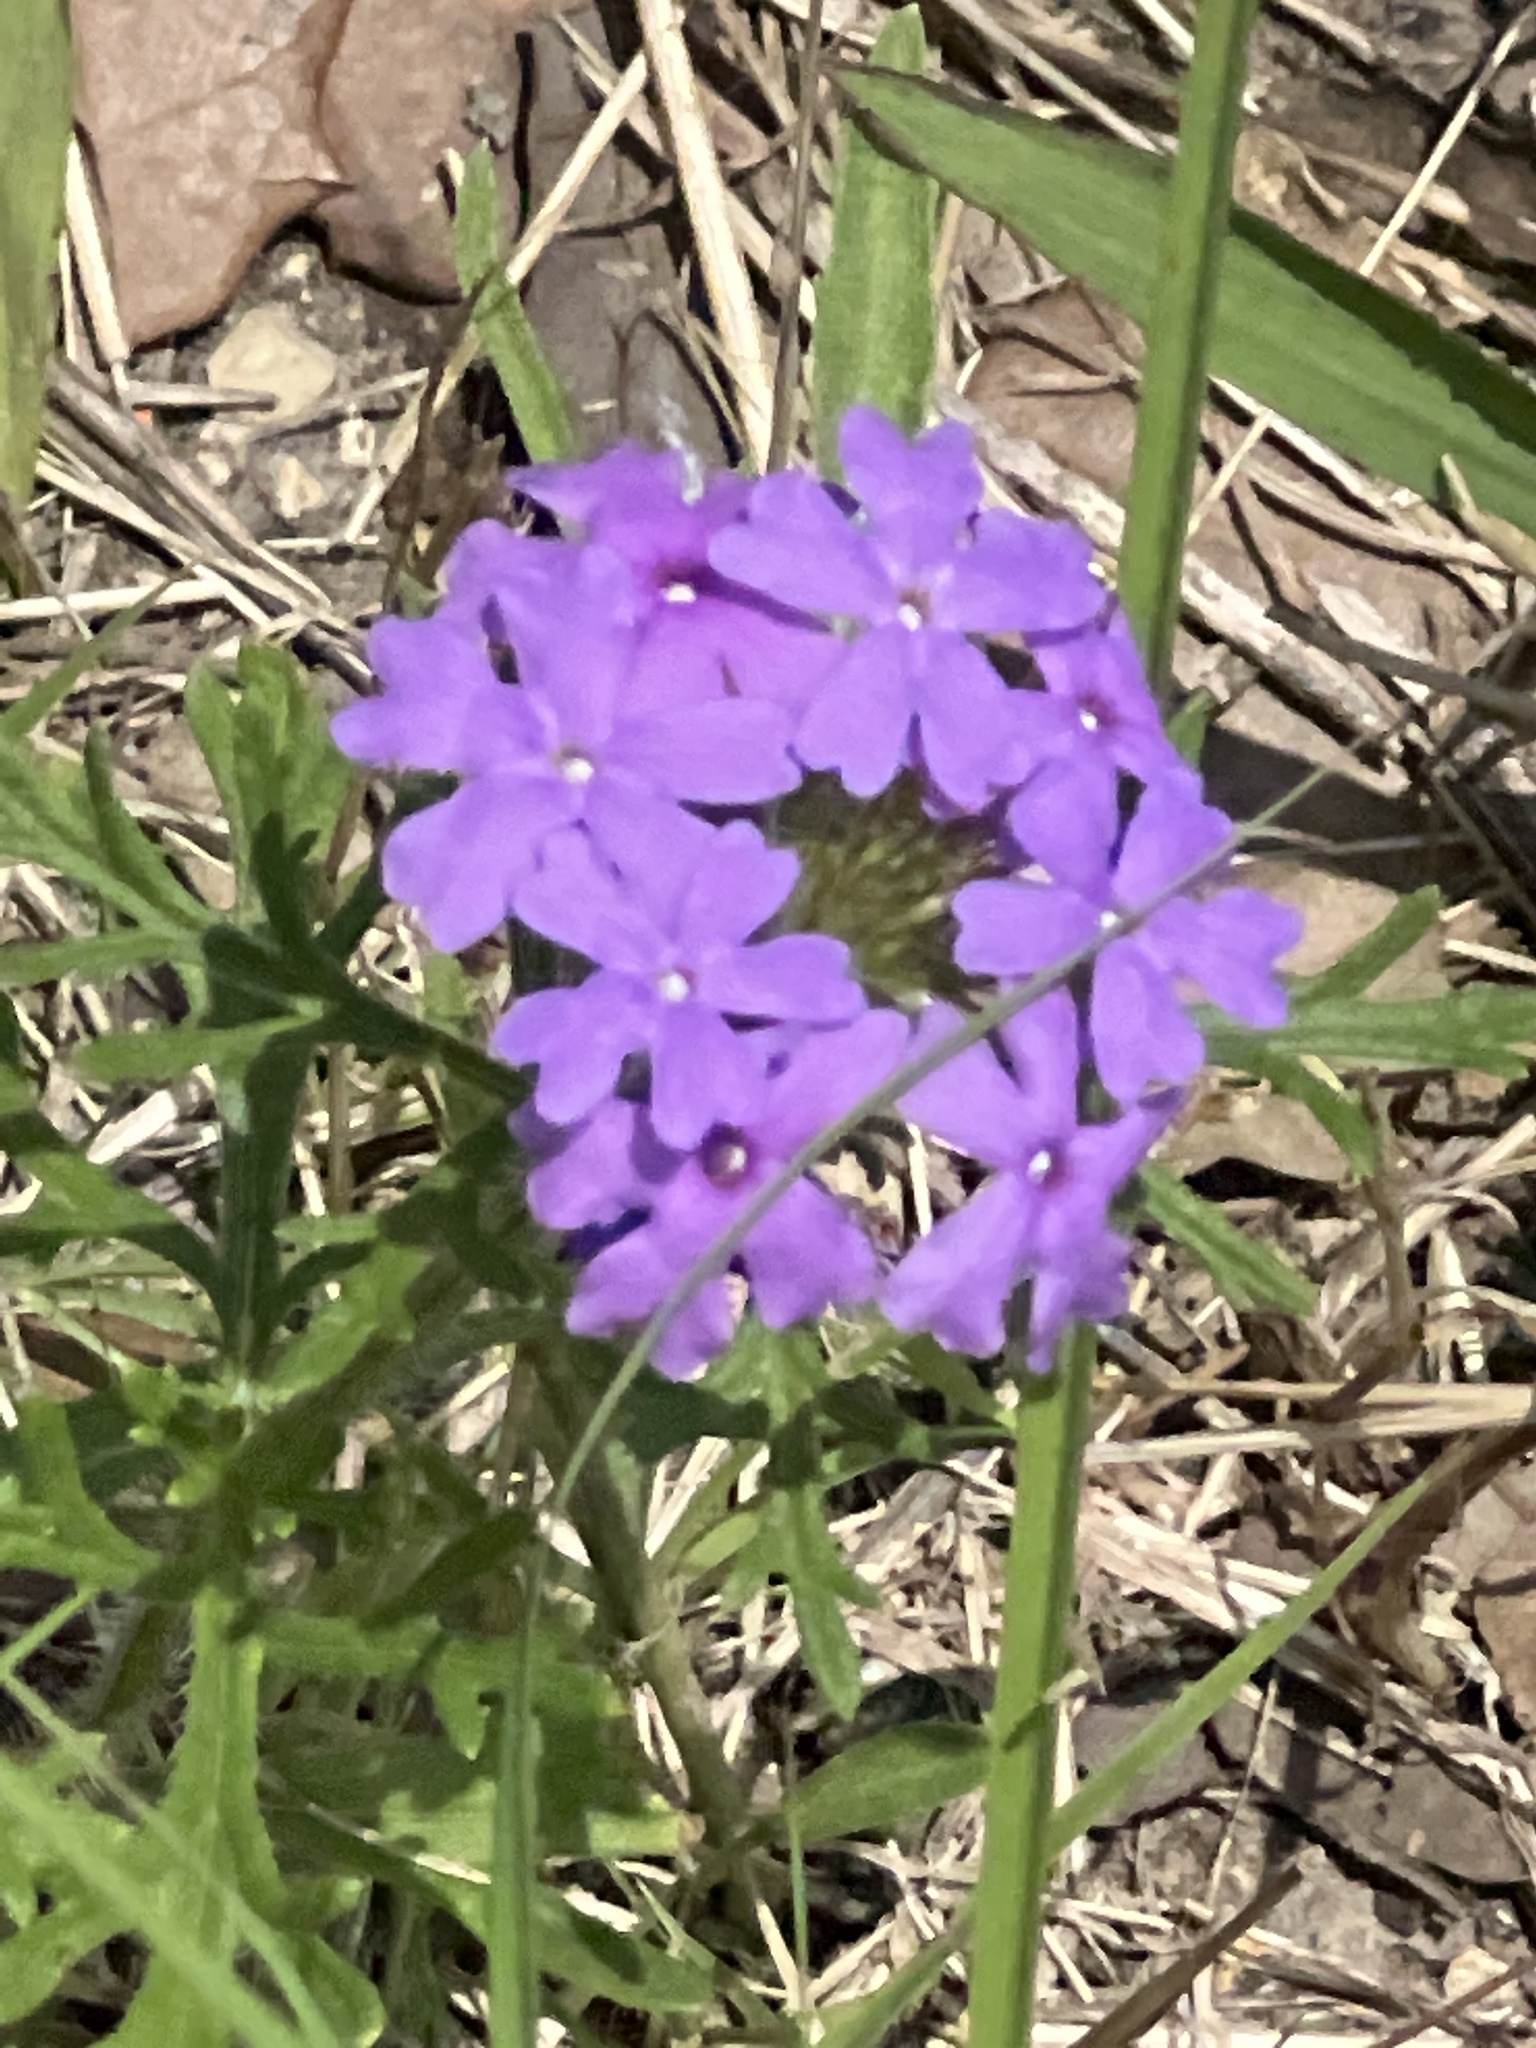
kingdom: Plantae
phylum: Tracheophyta
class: Magnoliopsida
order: Lamiales
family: Verbenaceae
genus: Verbena
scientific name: Verbena bipinnatifida
